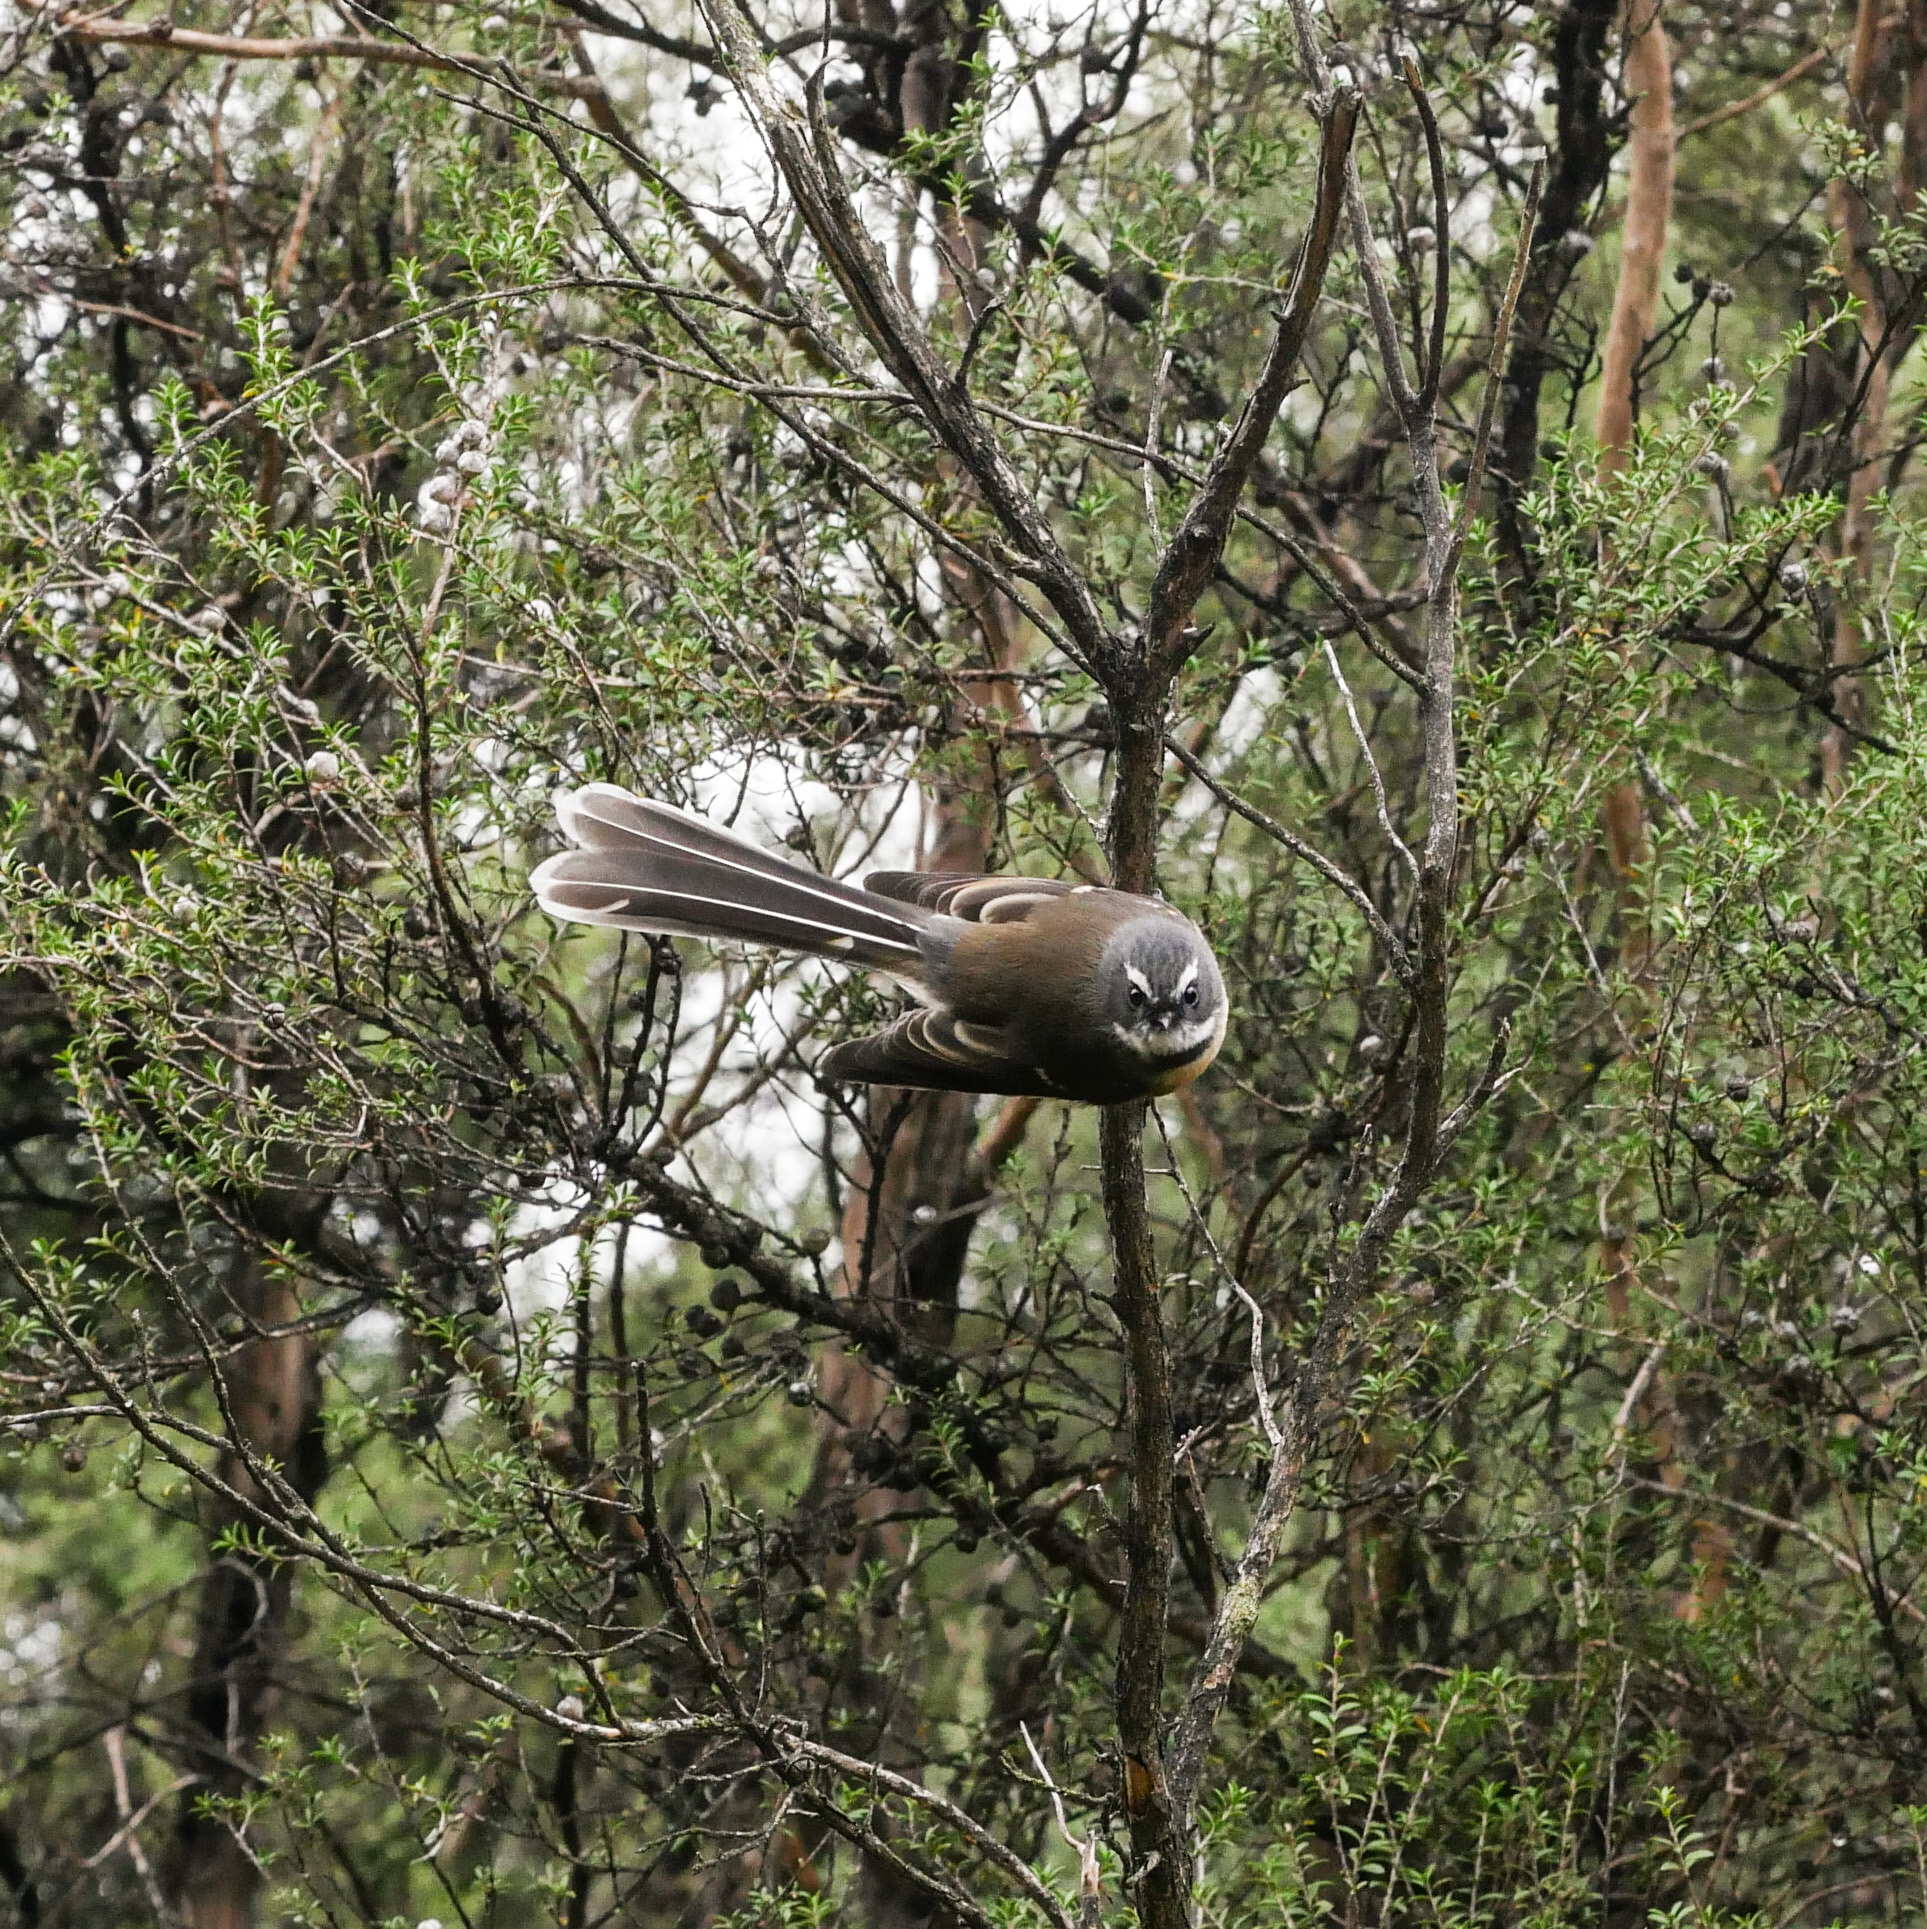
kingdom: Animalia
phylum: Chordata
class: Aves
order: Passeriformes
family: Rhipiduridae
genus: Rhipidura
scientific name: Rhipidura fuliginosa
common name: New zealand fantail
